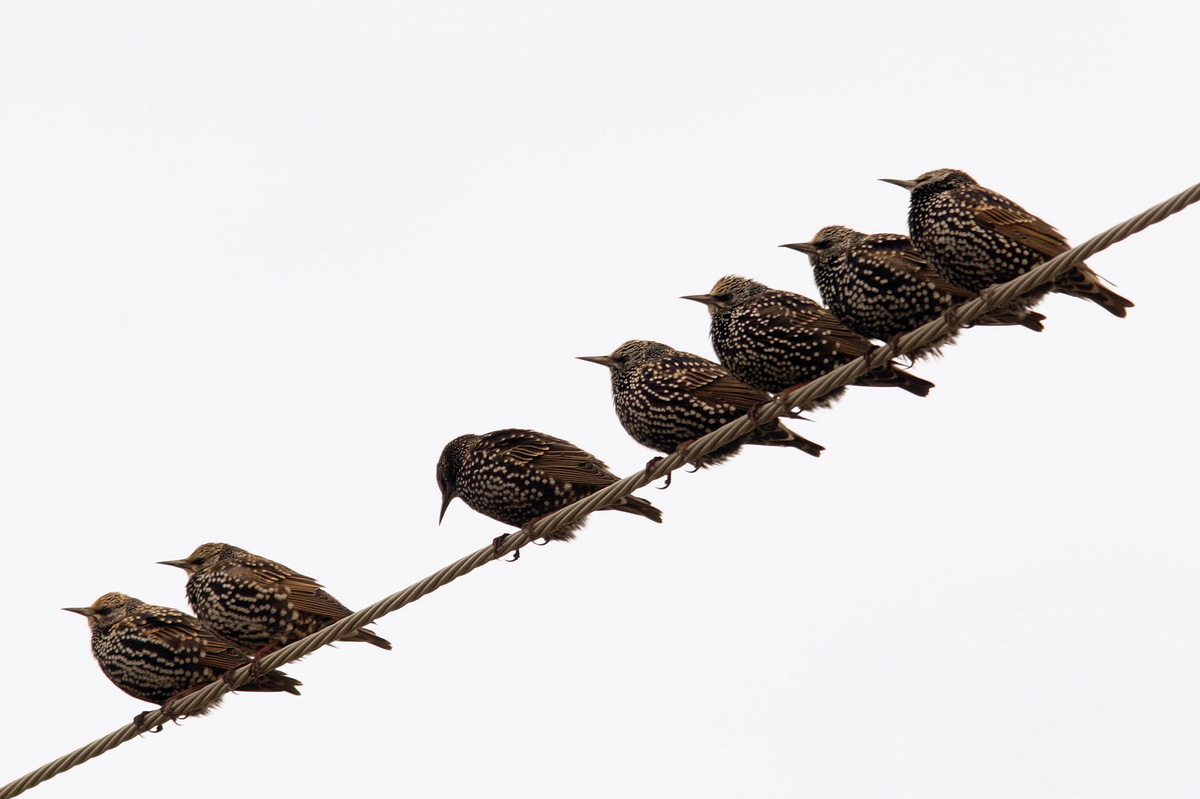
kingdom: Animalia
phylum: Chordata
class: Aves
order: Passeriformes
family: Sturnidae
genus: Sturnus
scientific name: Sturnus vulgaris
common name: Common starling
